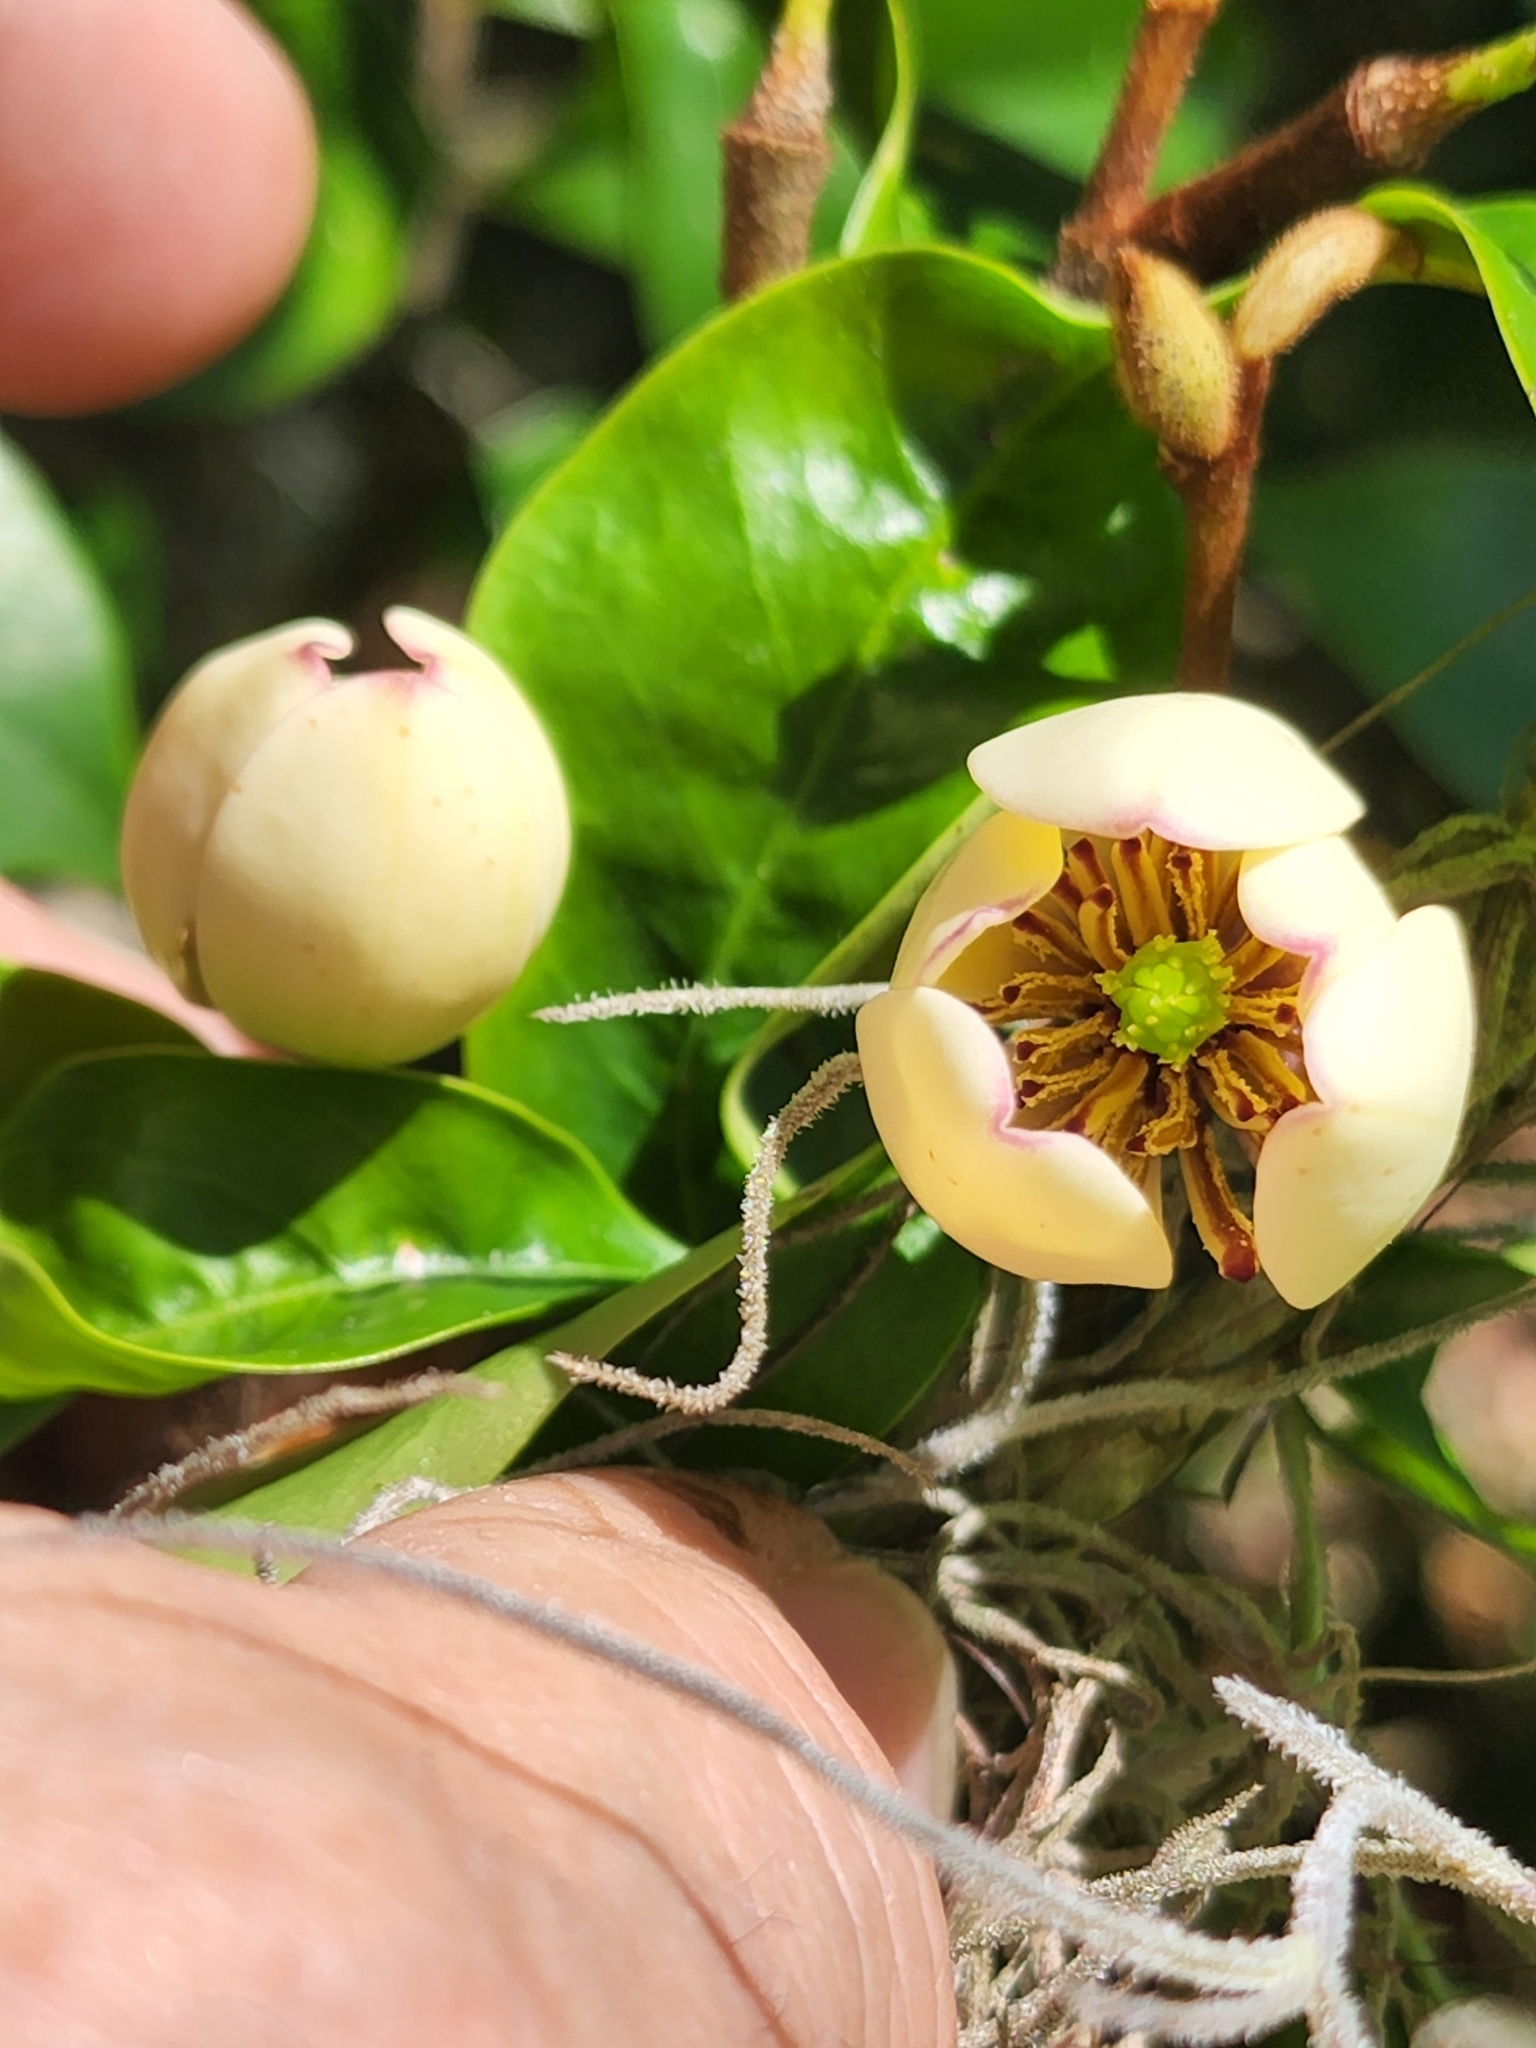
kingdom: Plantae
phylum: Tracheophyta
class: Magnoliopsida
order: Magnoliales
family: Magnoliaceae
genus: Magnolia
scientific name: Magnolia figo
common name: Banana shrub
